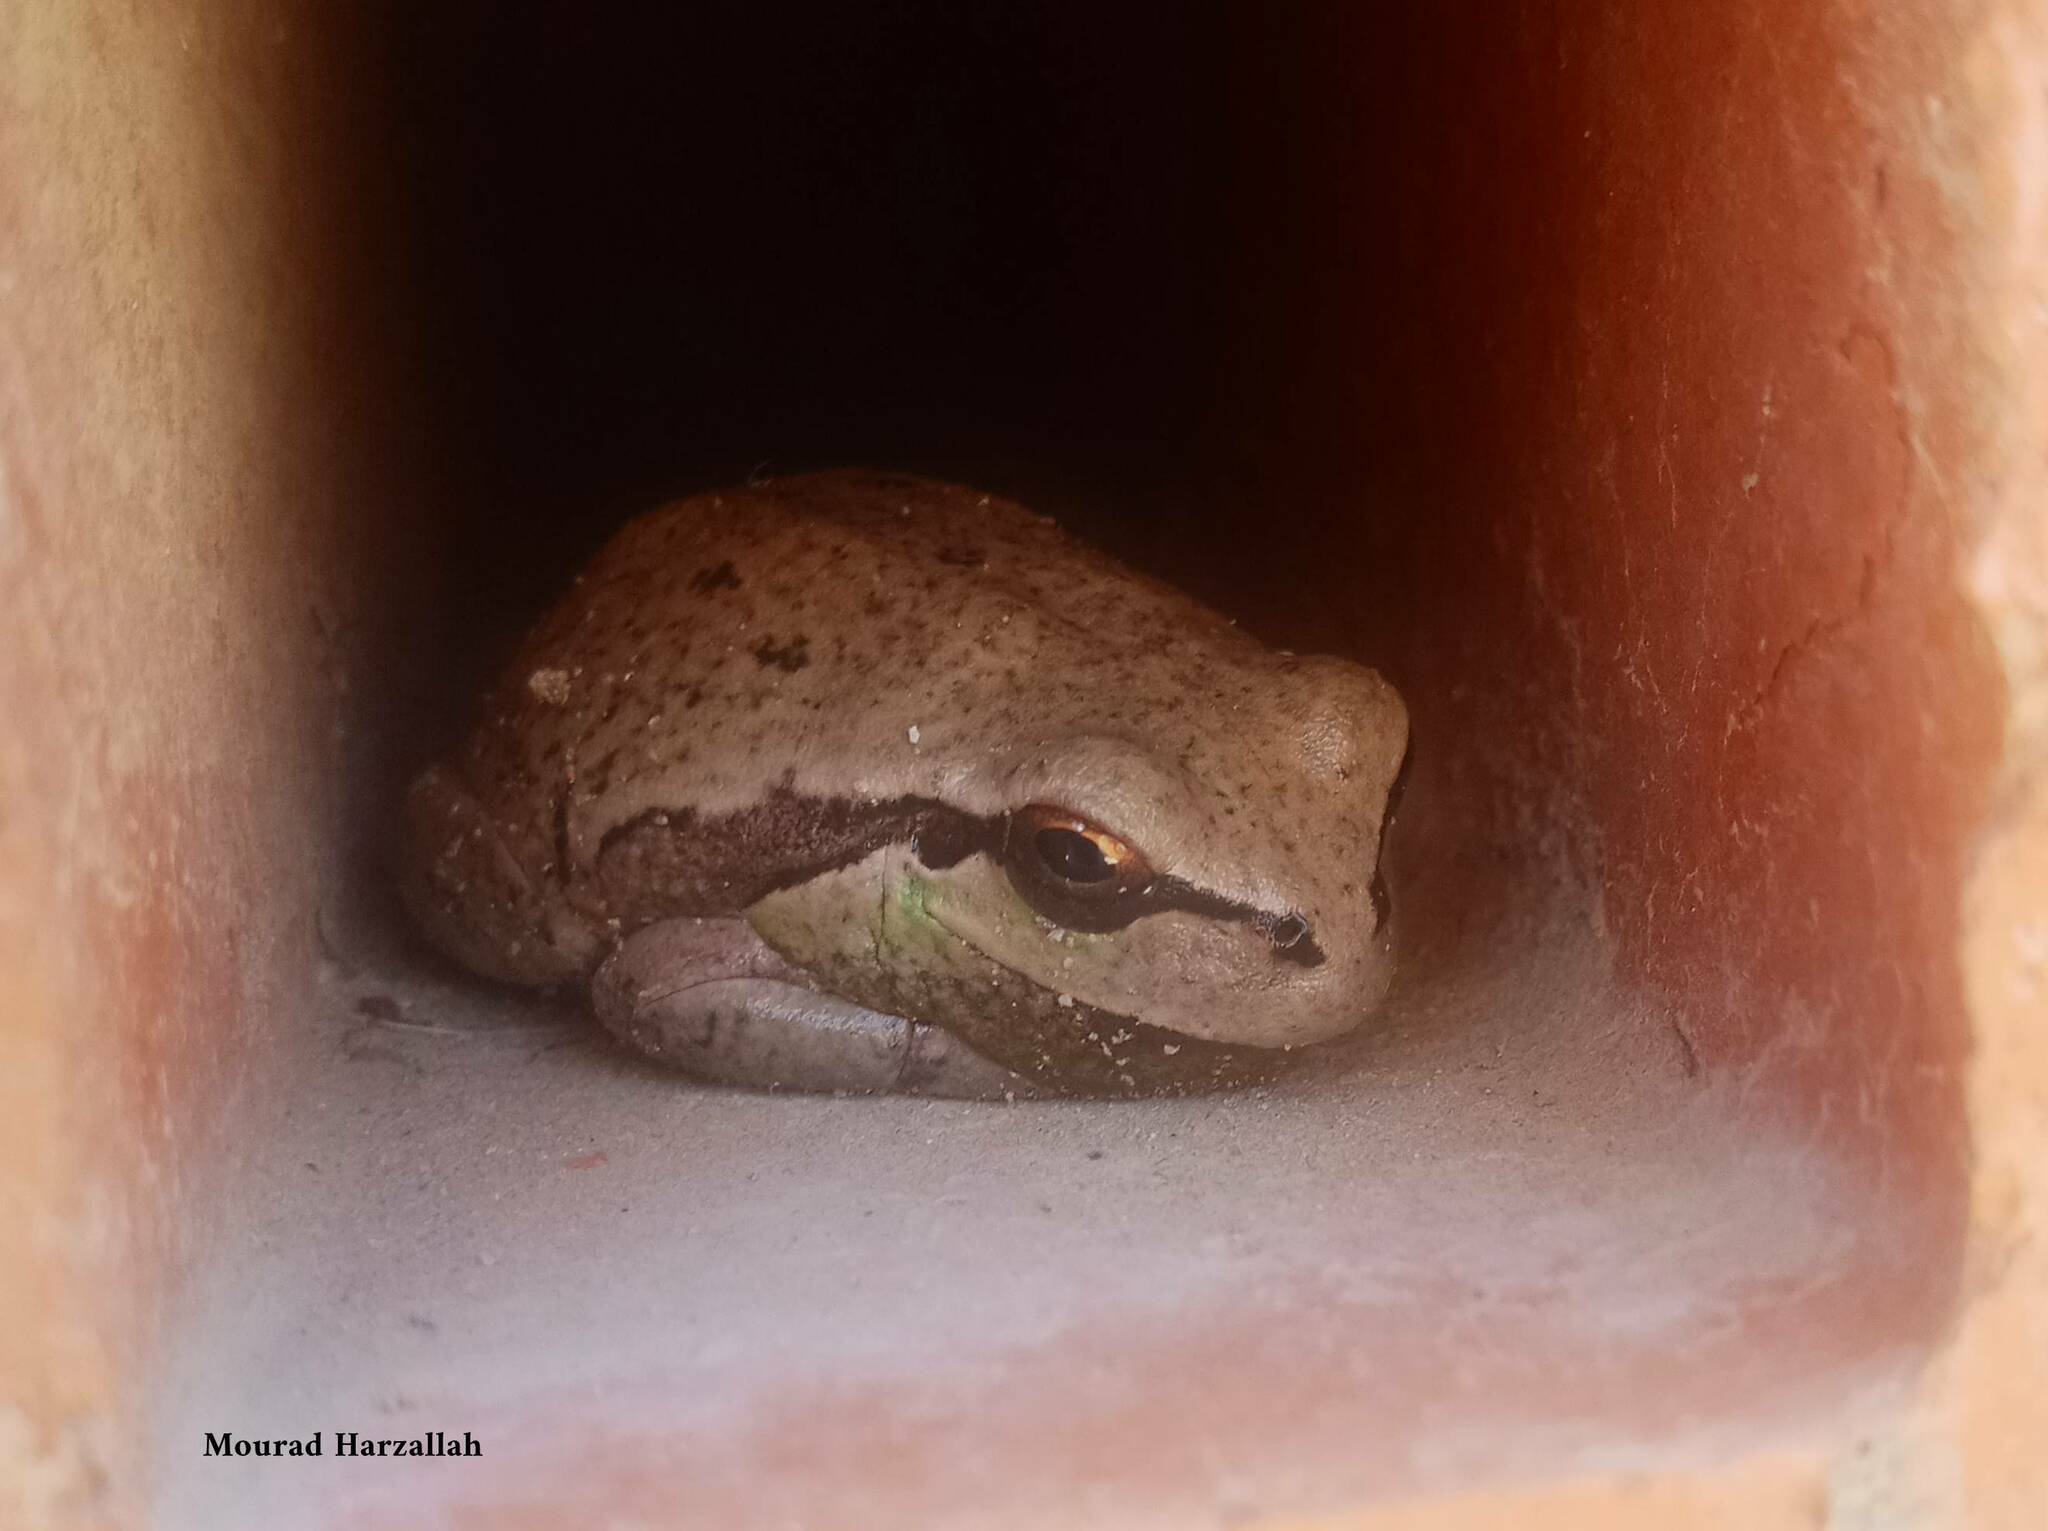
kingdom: Animalia
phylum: Chordata
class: Amphibia
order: Anura
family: Hylidae
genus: Hyla
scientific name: Hyla meridionalis
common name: Stripeless tree frog
